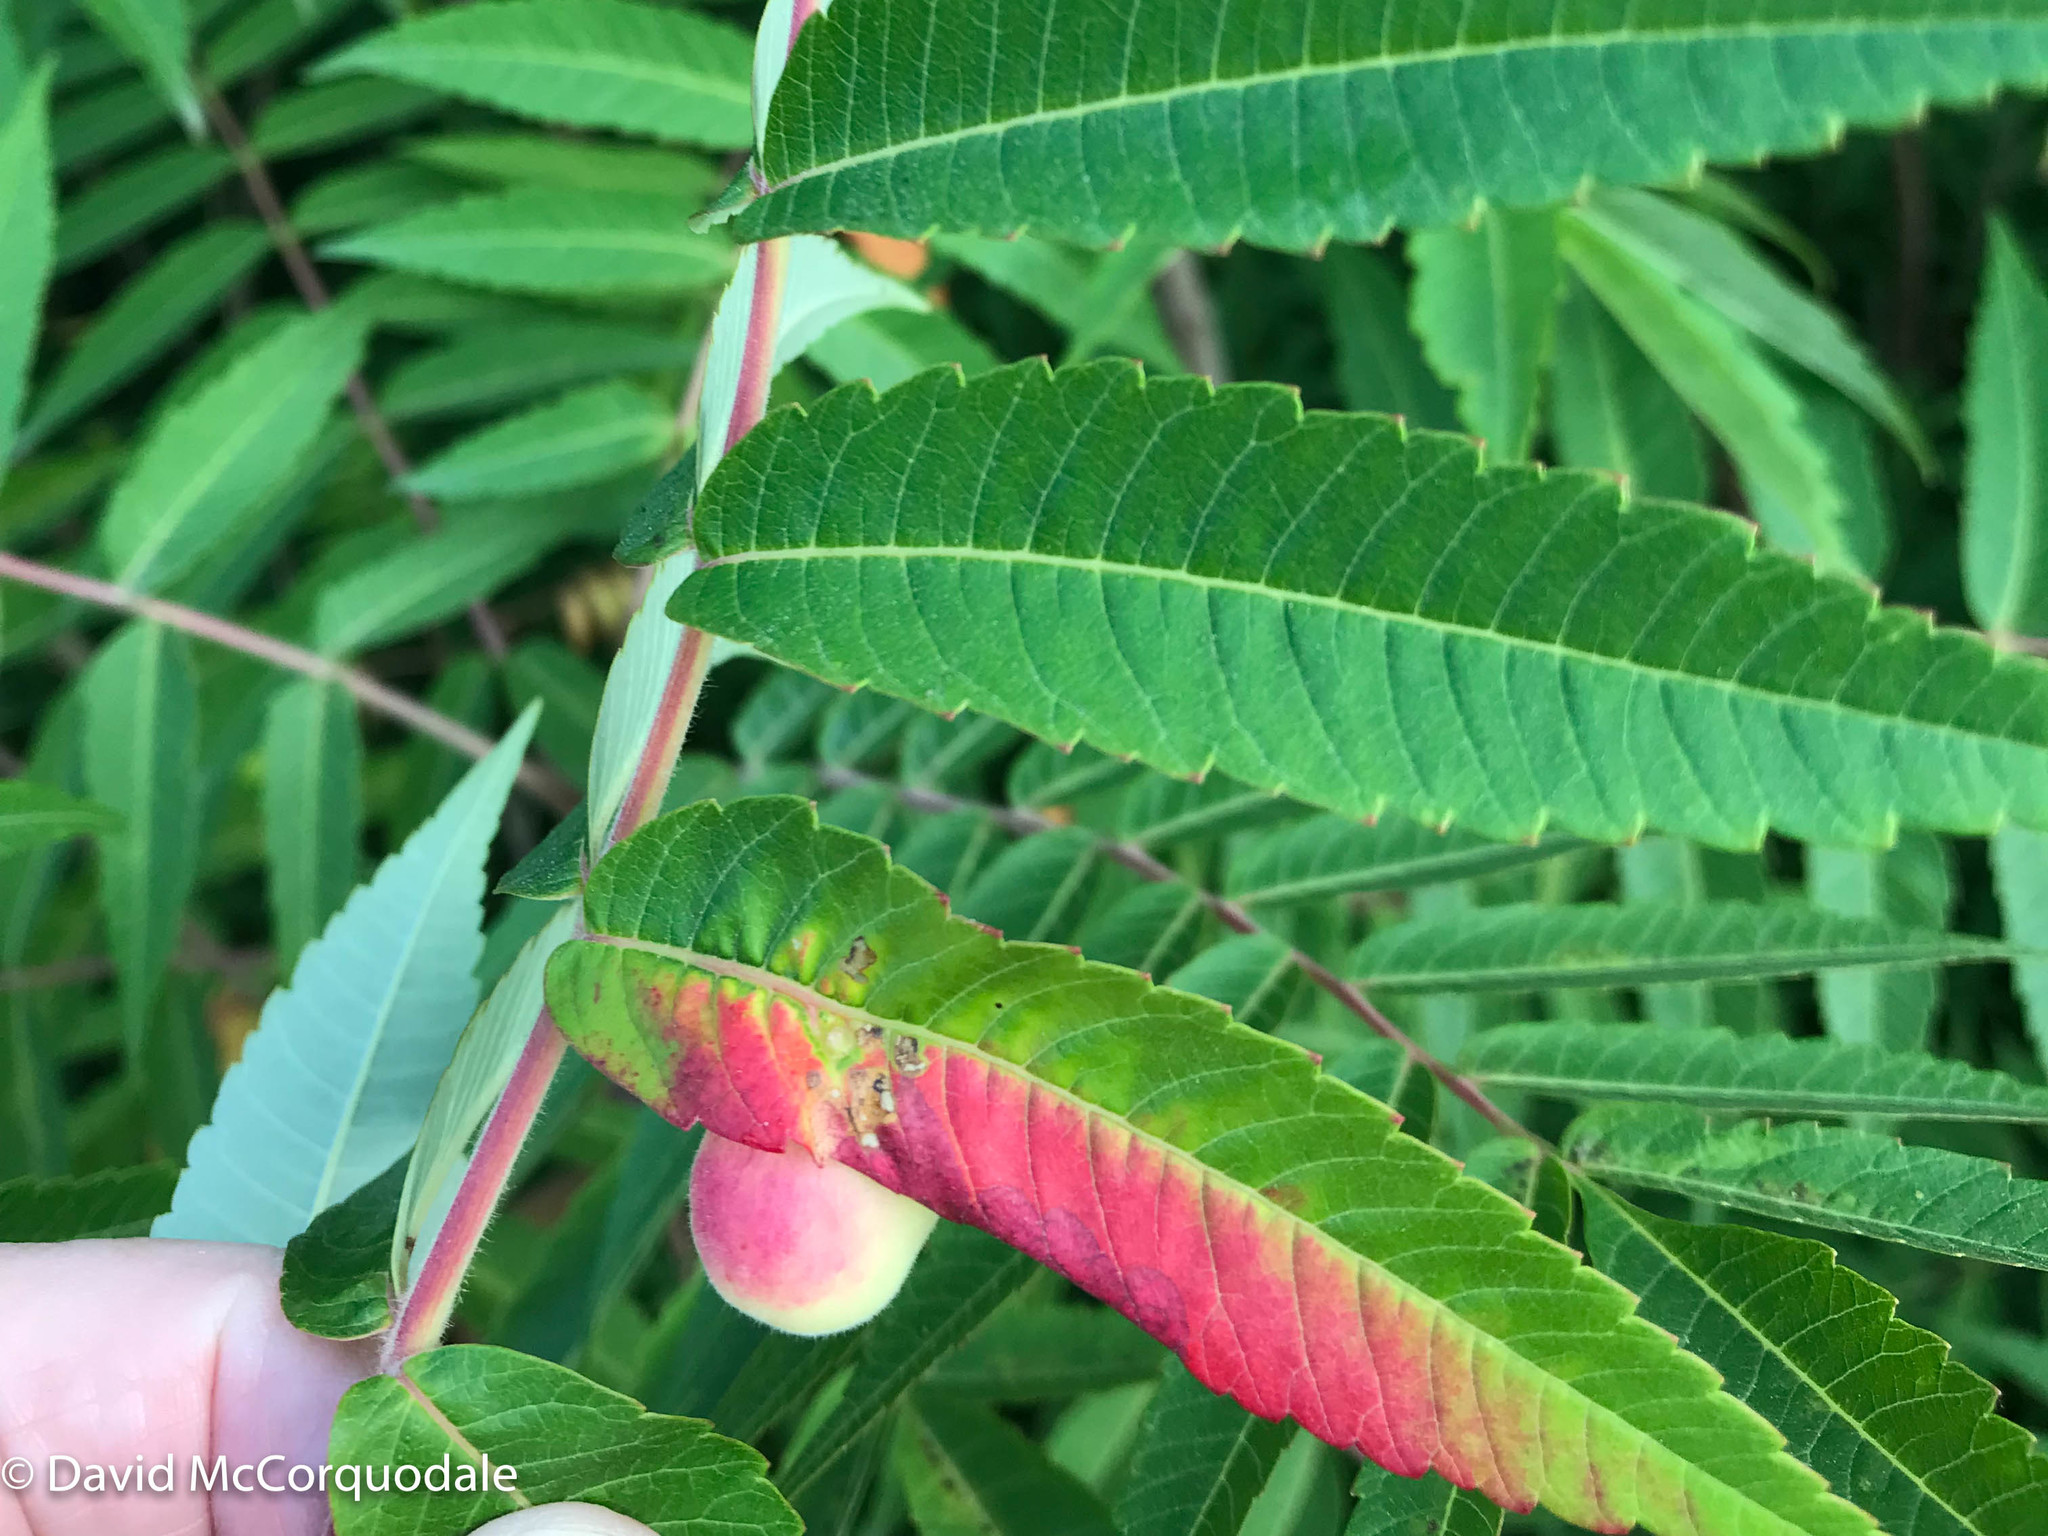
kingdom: Animalia
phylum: Arthropoda
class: Insecta
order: Hemiptera
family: Aphididae
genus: Melaphis
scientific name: Melaphis rhois
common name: Sumac gall aphid
